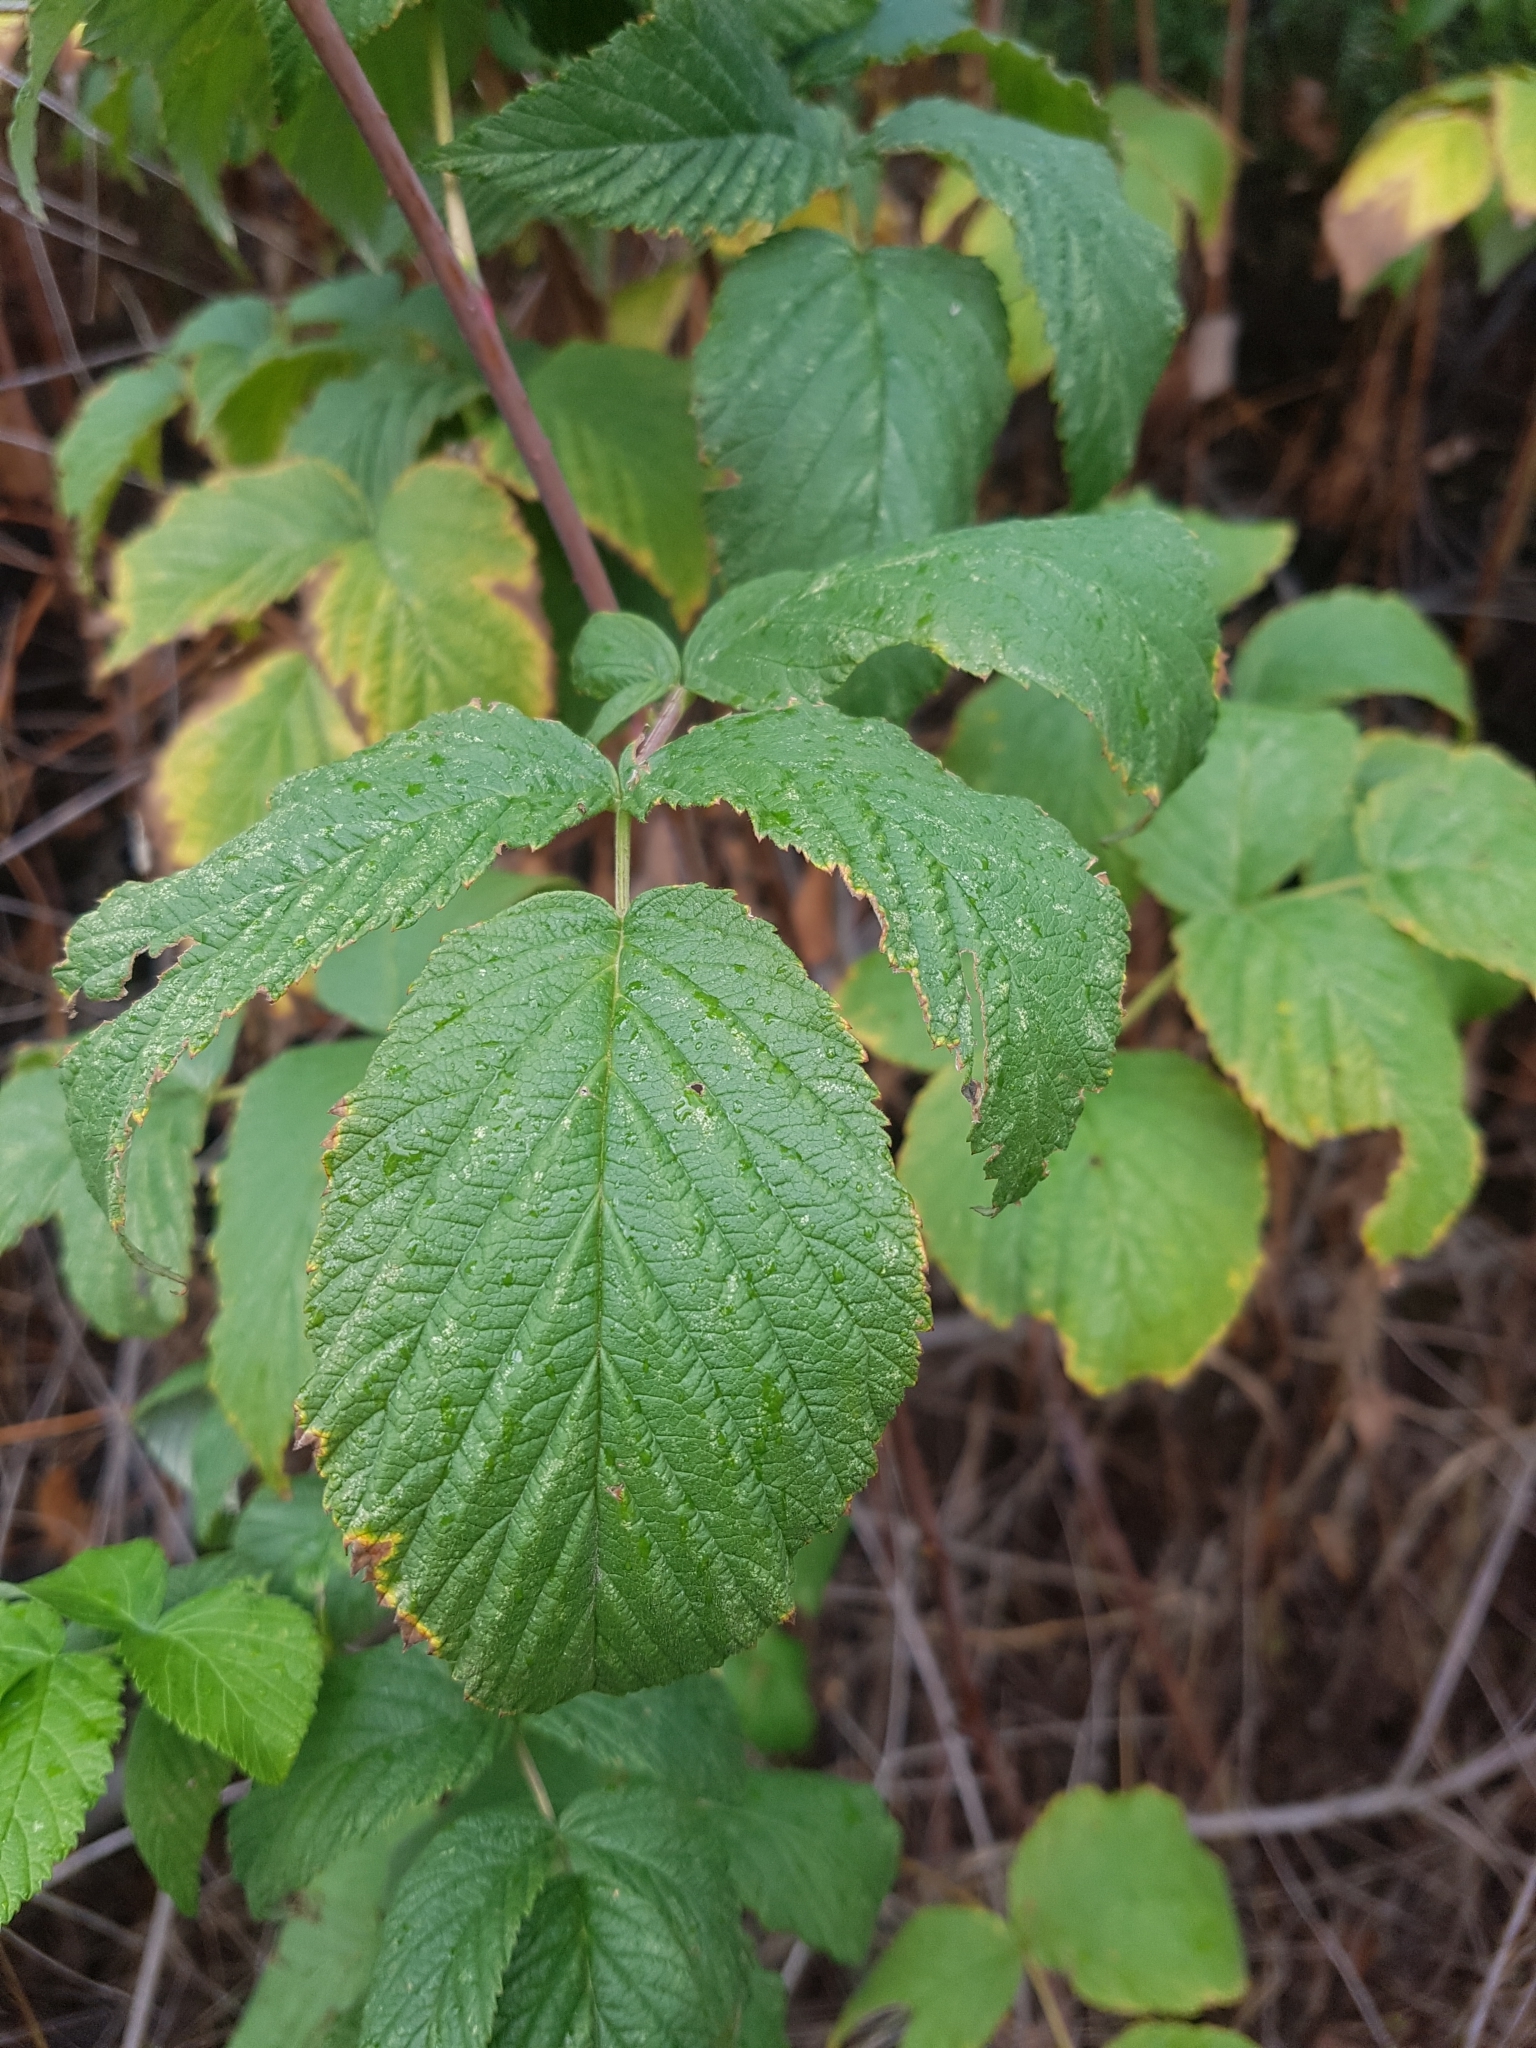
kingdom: Plantae
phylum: Tracheophyta
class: Magnoliopsida
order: Rosales
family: Rosaceae
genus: Rubus
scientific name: Rubus idaeus
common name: Raspberry
